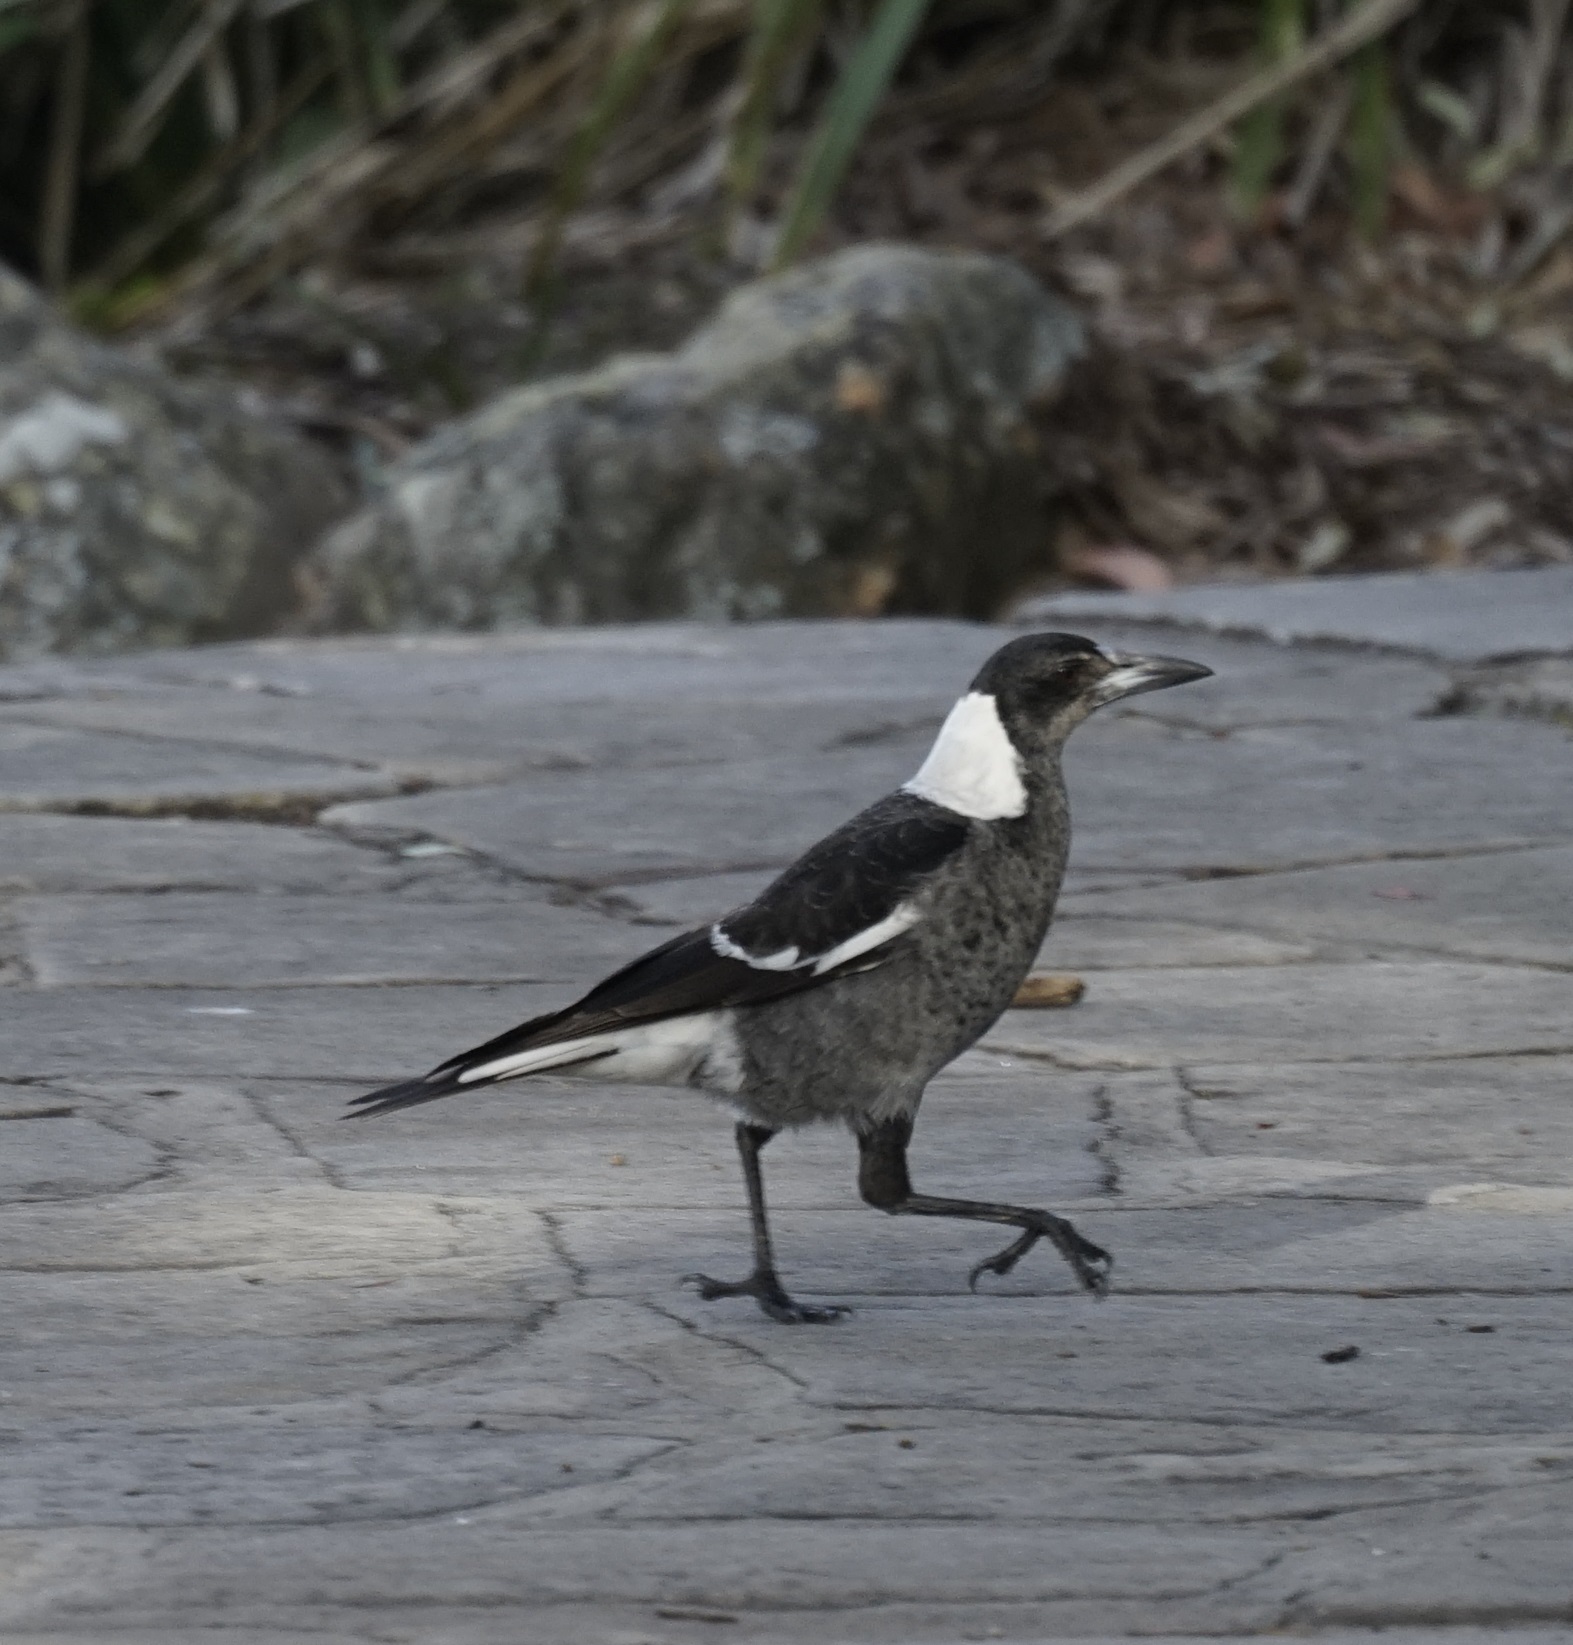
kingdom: Animalia
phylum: Chordata
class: Aves
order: Passeriformes
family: Cracticidae
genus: Gymnorhina
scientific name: Gymnorhina tibicen
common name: Australian magpie
